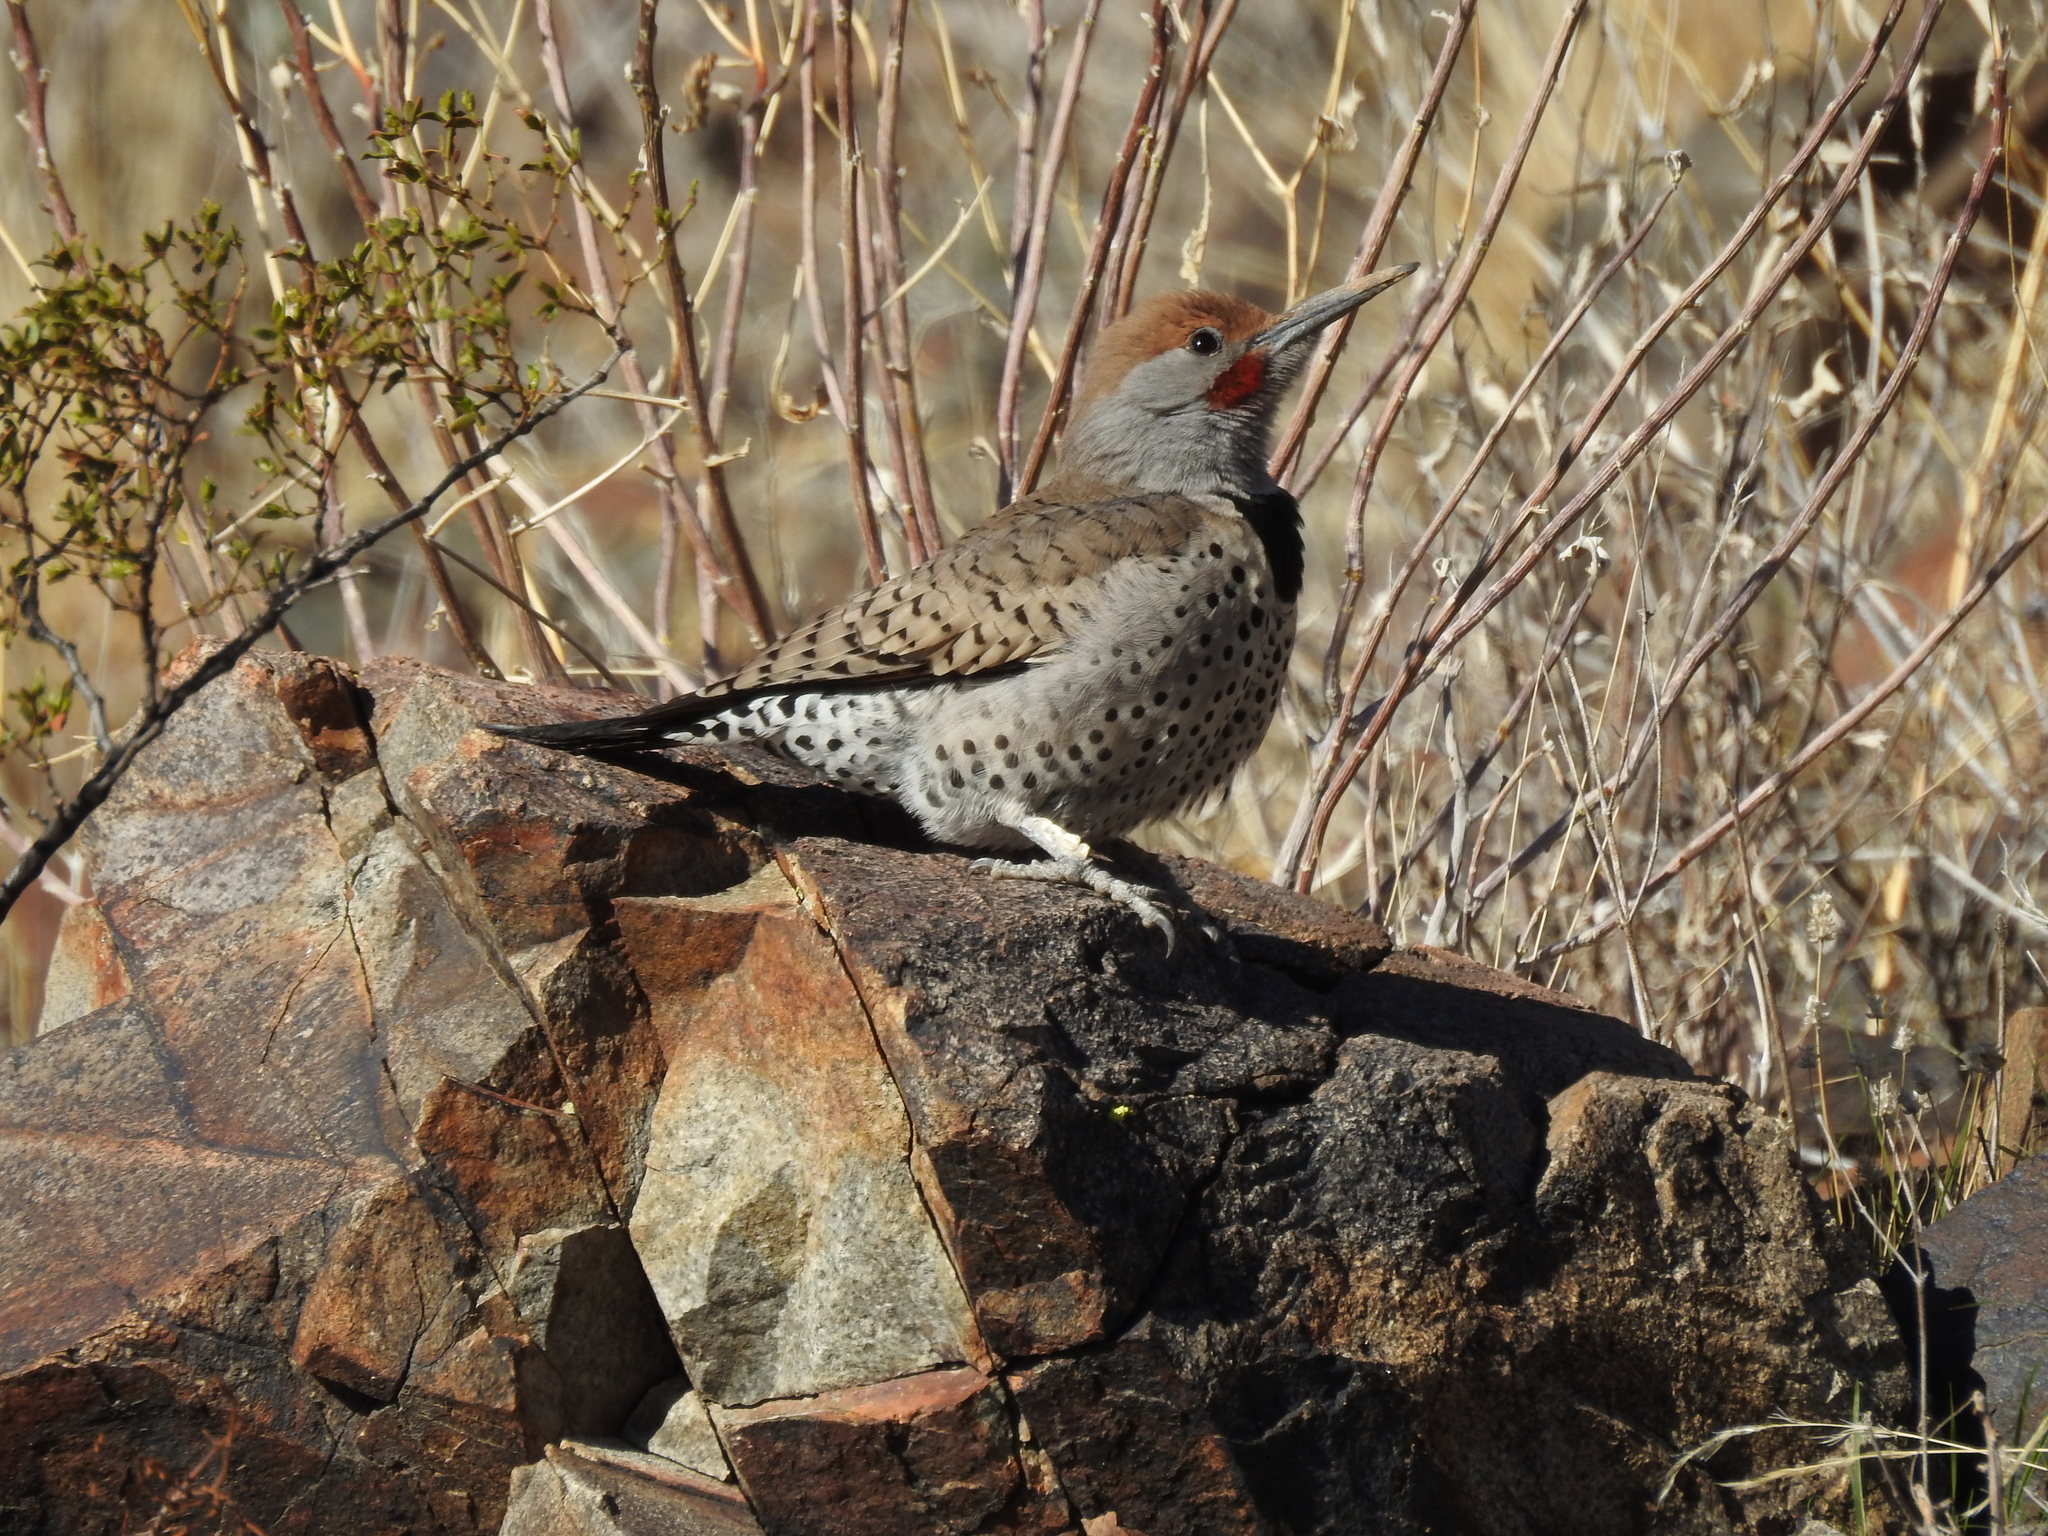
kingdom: Animalia
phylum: Chordata
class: Aves
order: Piciformes
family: Picidae
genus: Colaptes
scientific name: Colaptes chrysoides
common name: Gilded flicker
